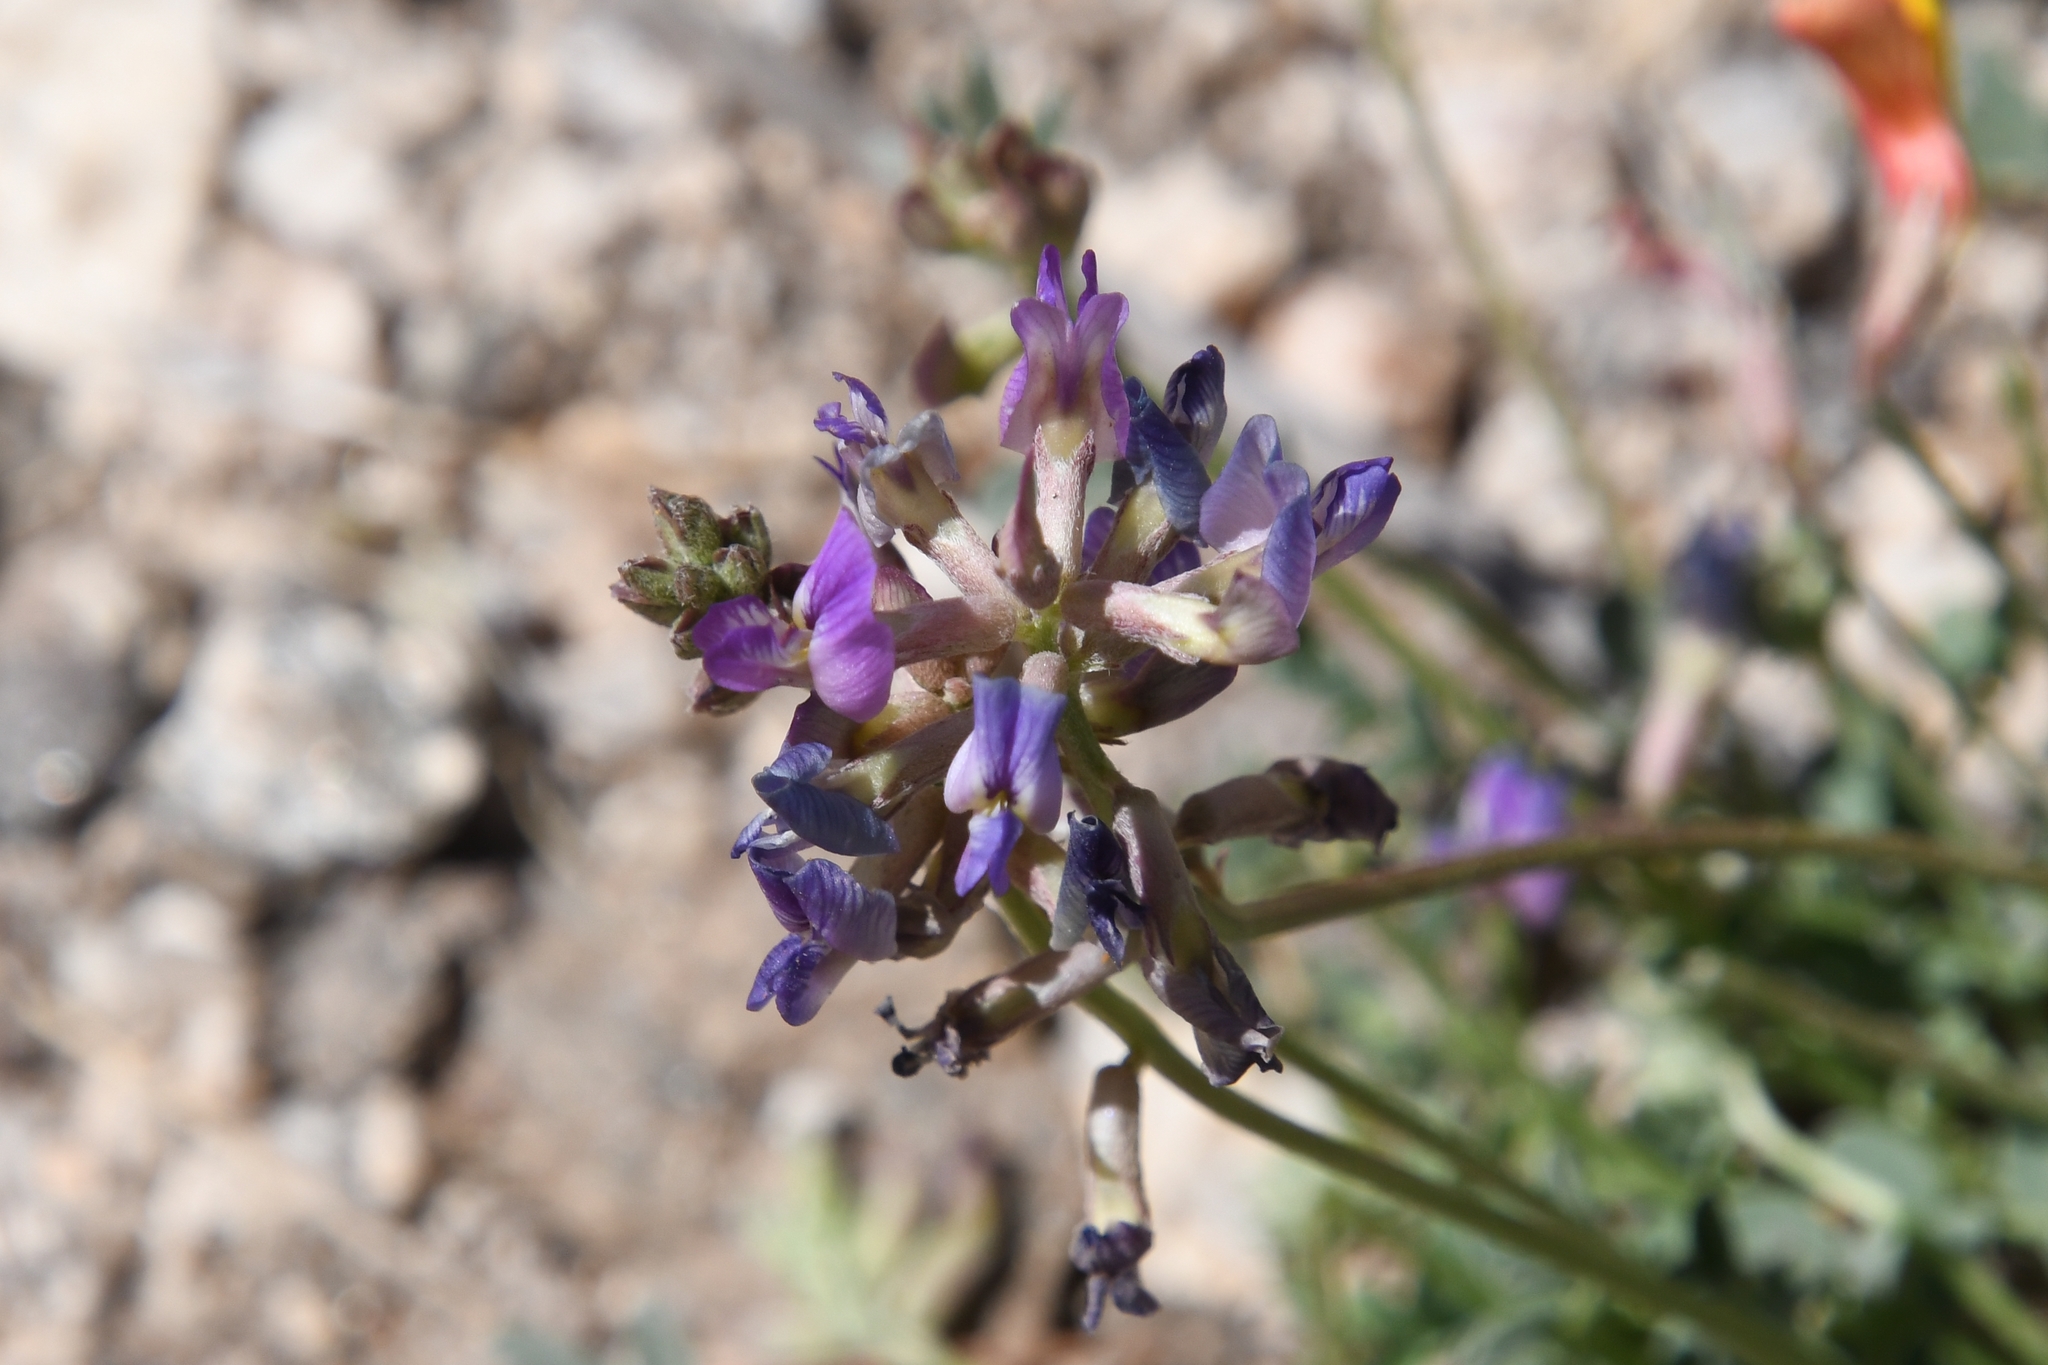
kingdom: Plantae
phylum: Tracheophyta
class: Magnoliopsida
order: Fabales
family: Fabaceae
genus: Astragalus
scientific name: Astragalus nothoxys
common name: Beaked milk-vetch
